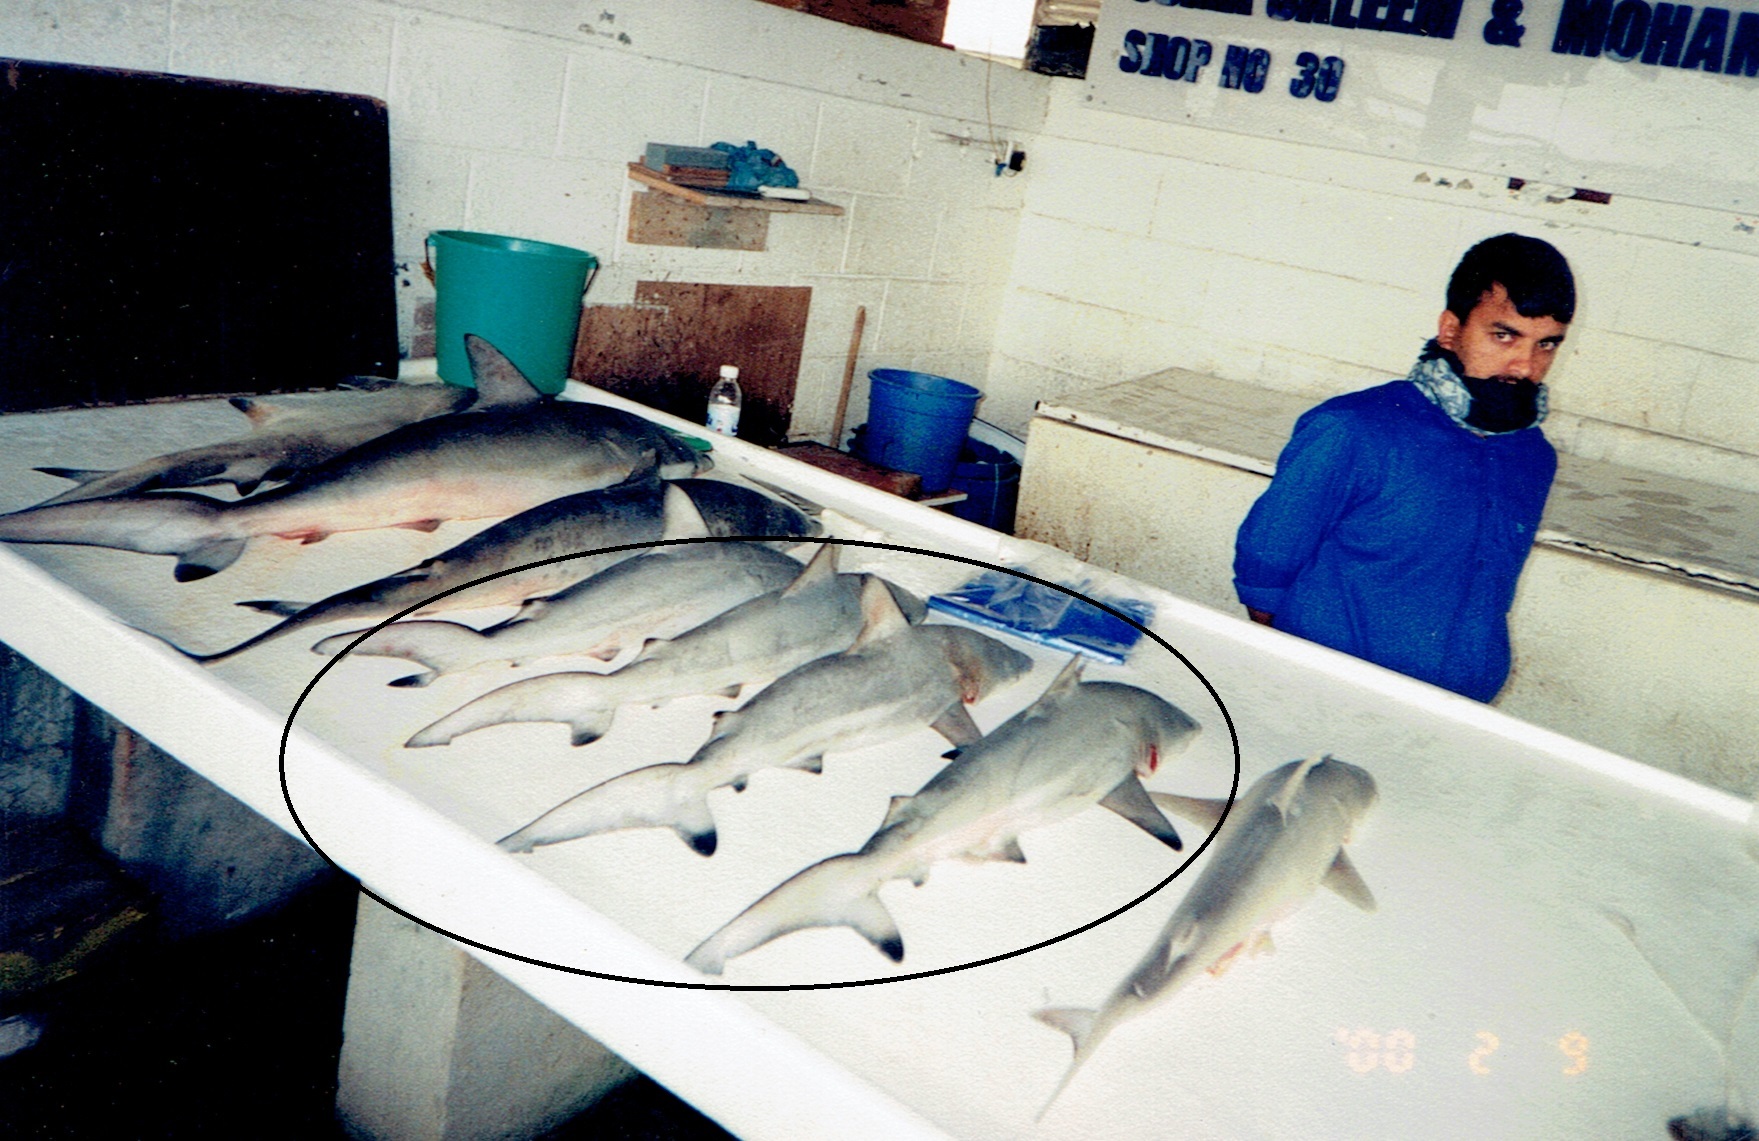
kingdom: Animalia
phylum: Chordata
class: Elasmobranchii
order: Carcharhiniformes
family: Carcharhinidae
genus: Carcharhinus
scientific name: Carcharhinus limbatus
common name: Blacktip shark
